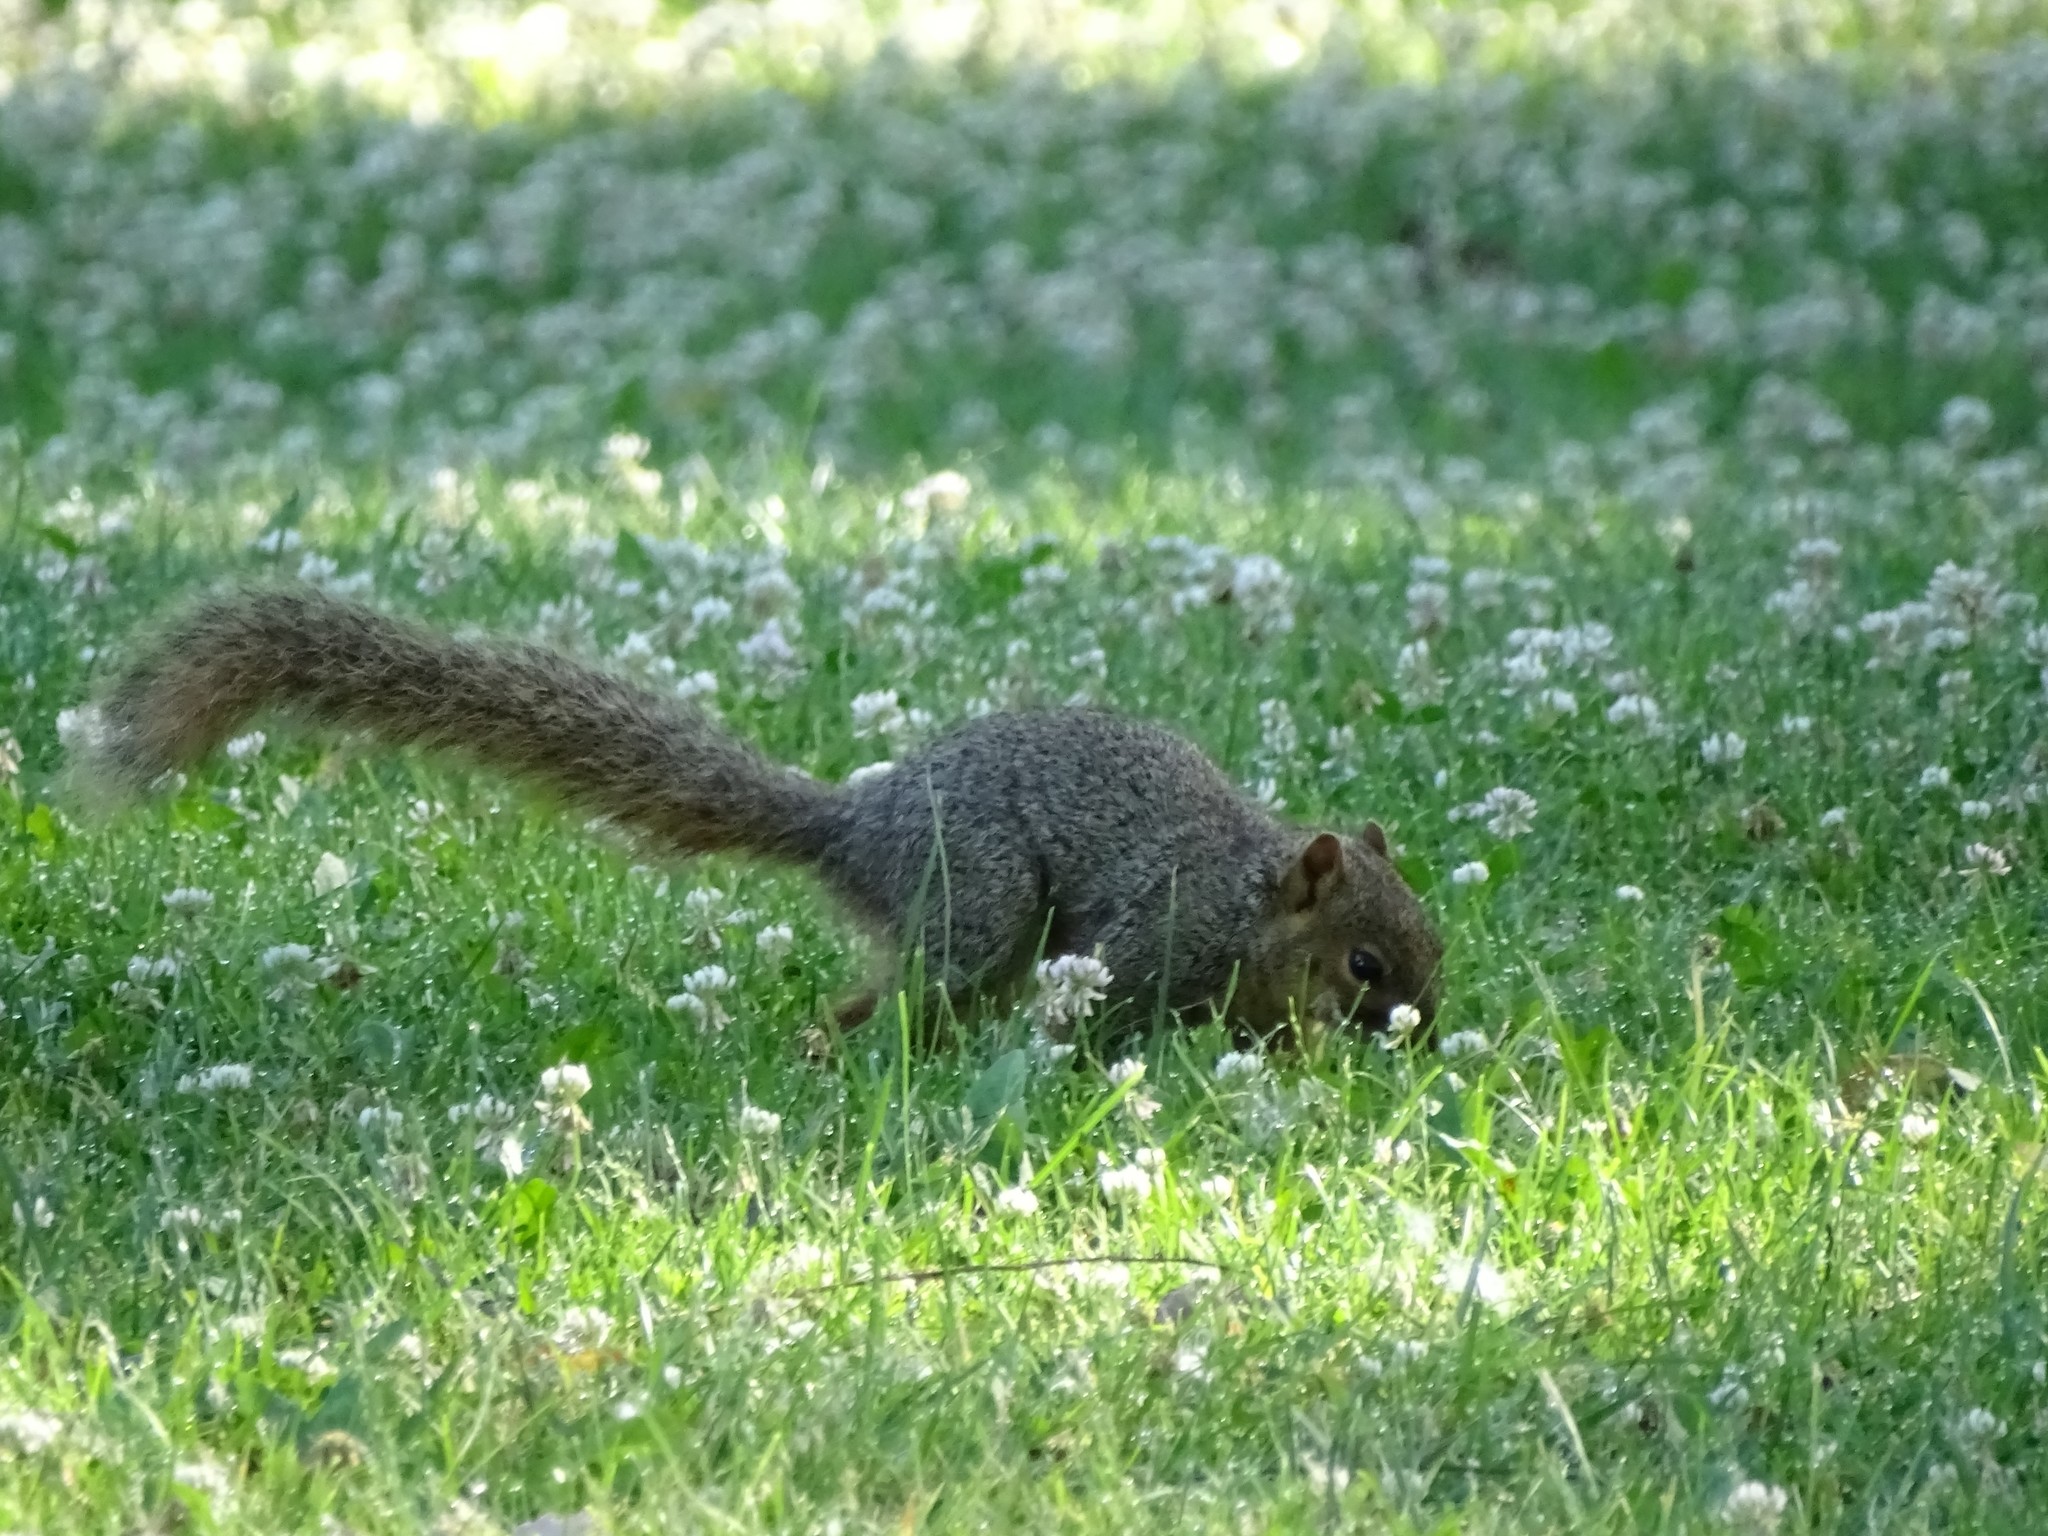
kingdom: Animalia
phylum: Chordata
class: Mammalia
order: Rodentia
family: Sciuridae
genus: Sciurus
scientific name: Sciurus niger
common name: Fox squirrel
